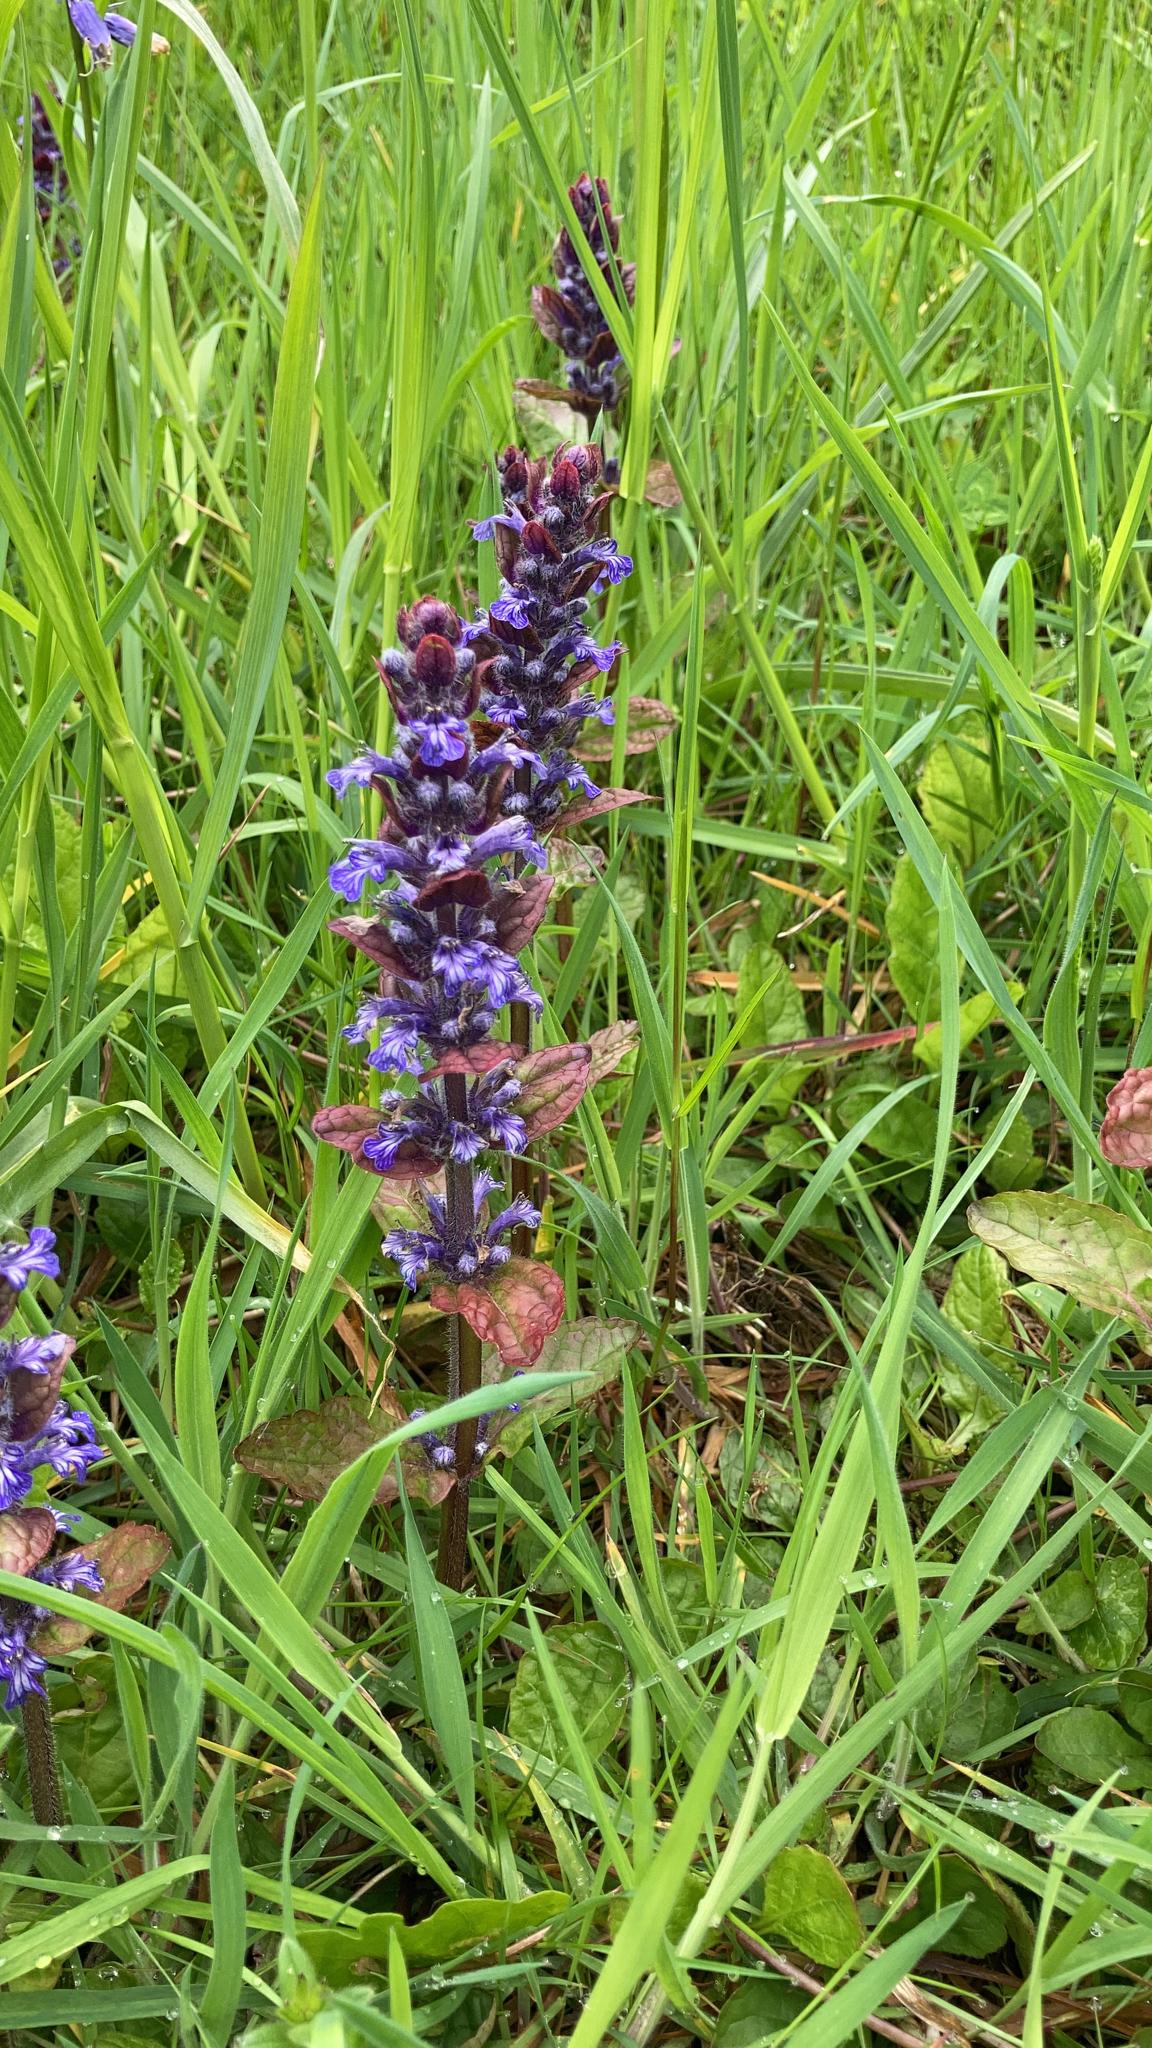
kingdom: Plantae
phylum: Tracheophyta
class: Magnoliopsida
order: Lamiales
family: Lamiaceae
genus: Ajuga
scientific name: Ajuga reptans
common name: Bugle
